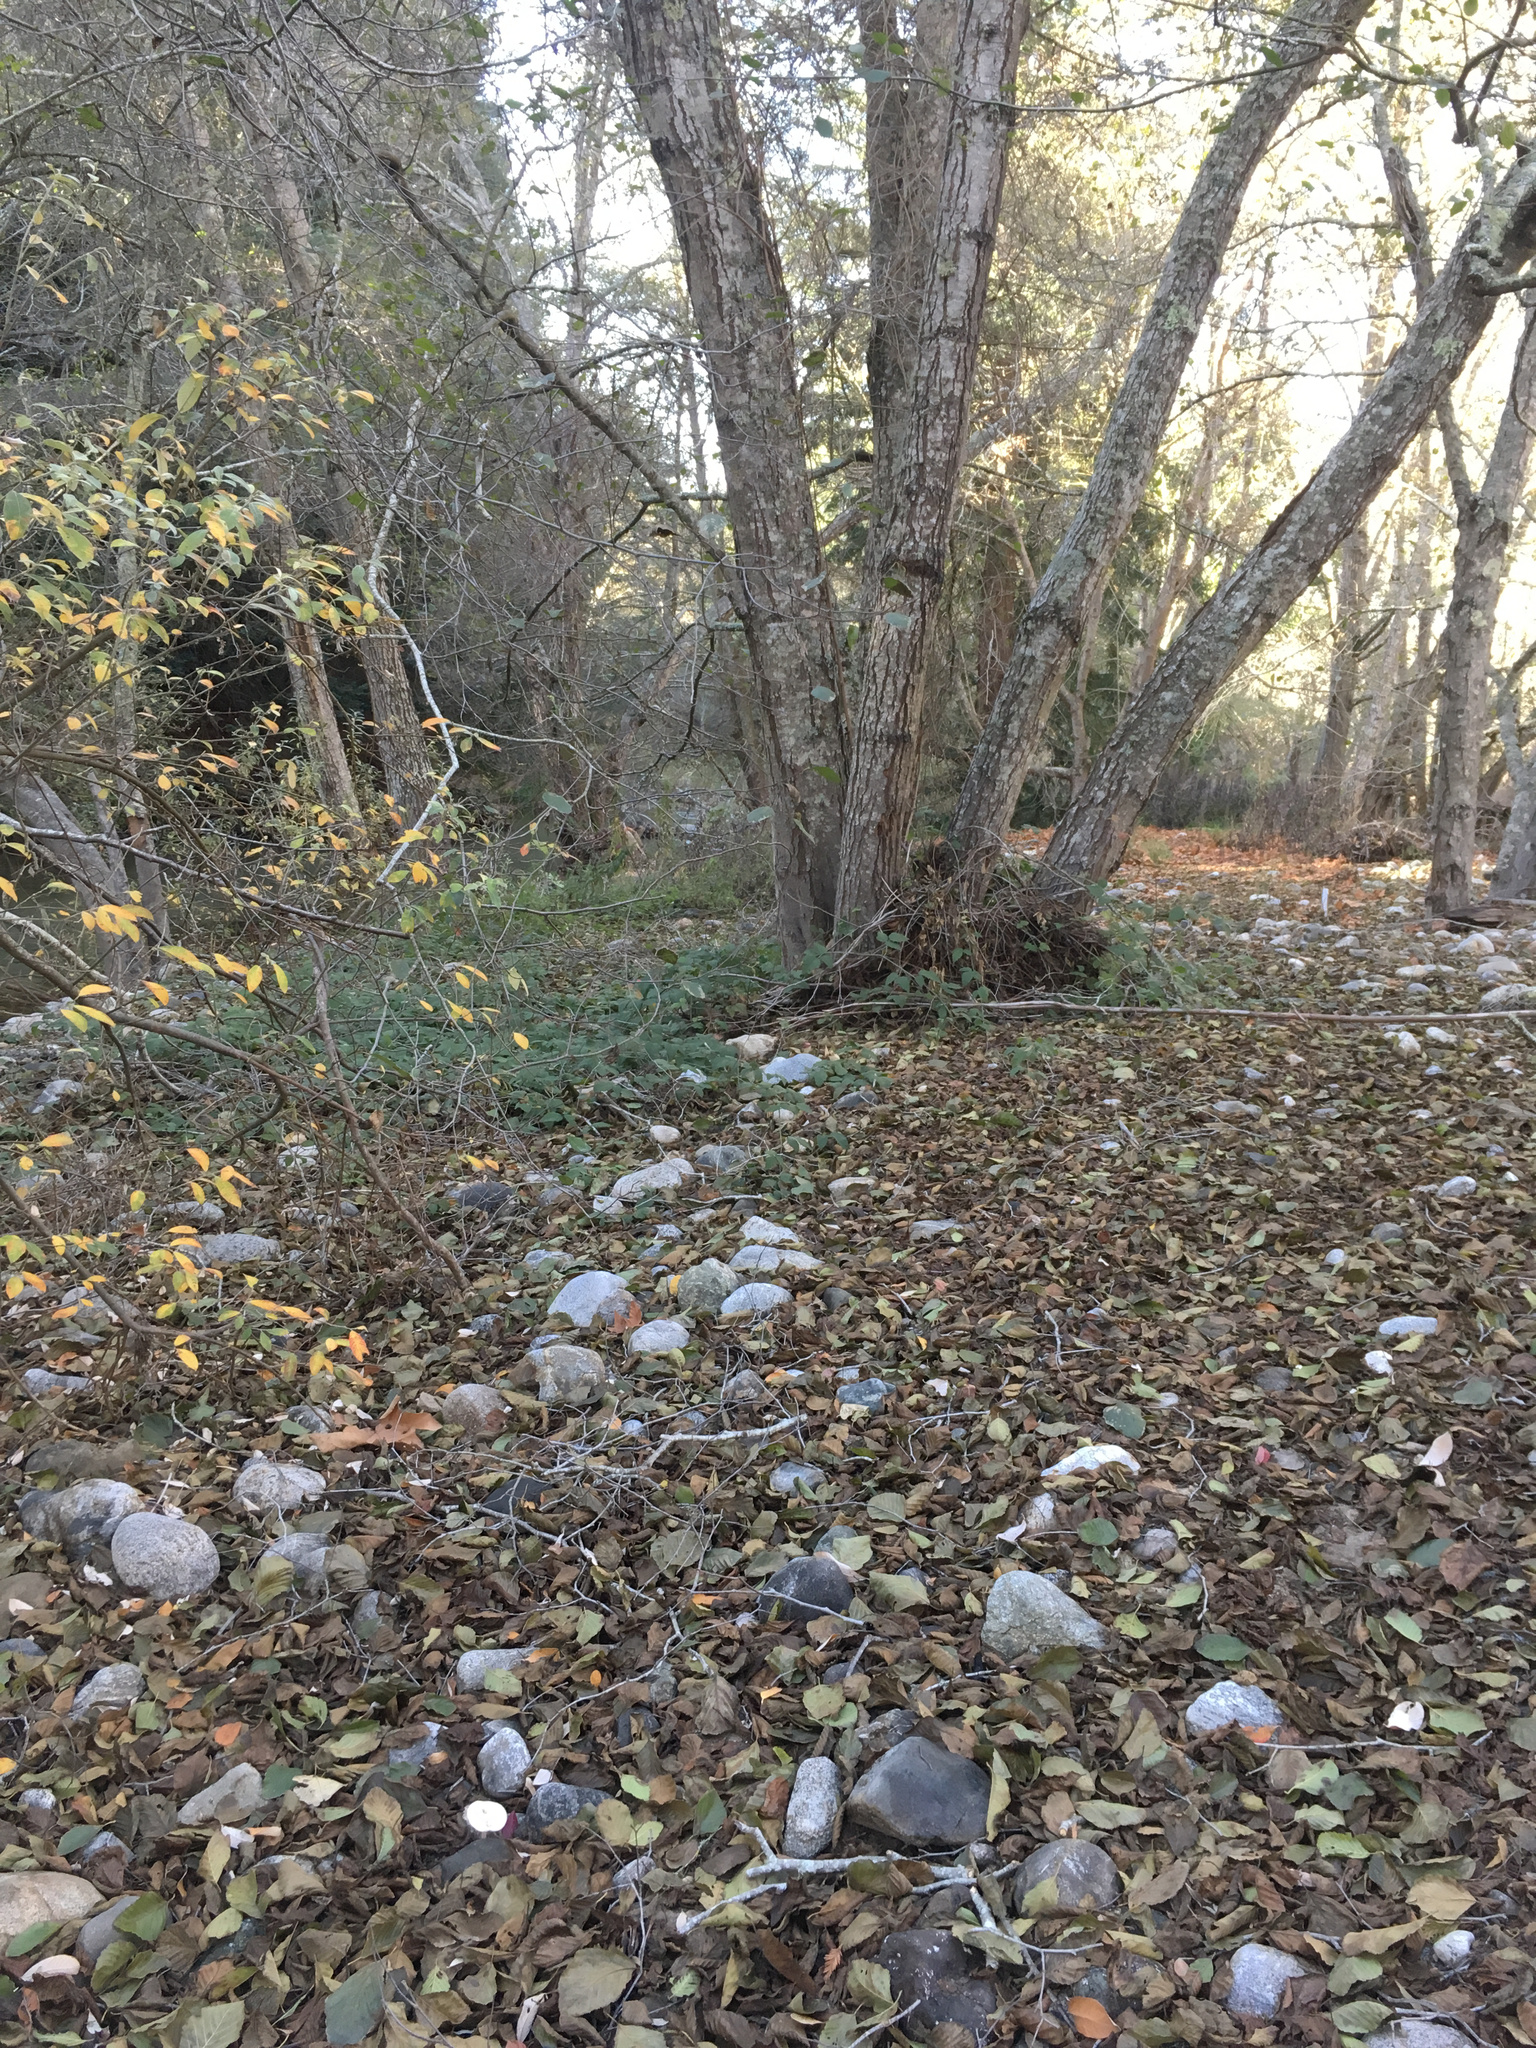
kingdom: Plantae
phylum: Tracheophyta
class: Magnoliopsida
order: Malpighiales
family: Salicaceae
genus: Salix
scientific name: Salix sitchensis
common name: Sitka willow
